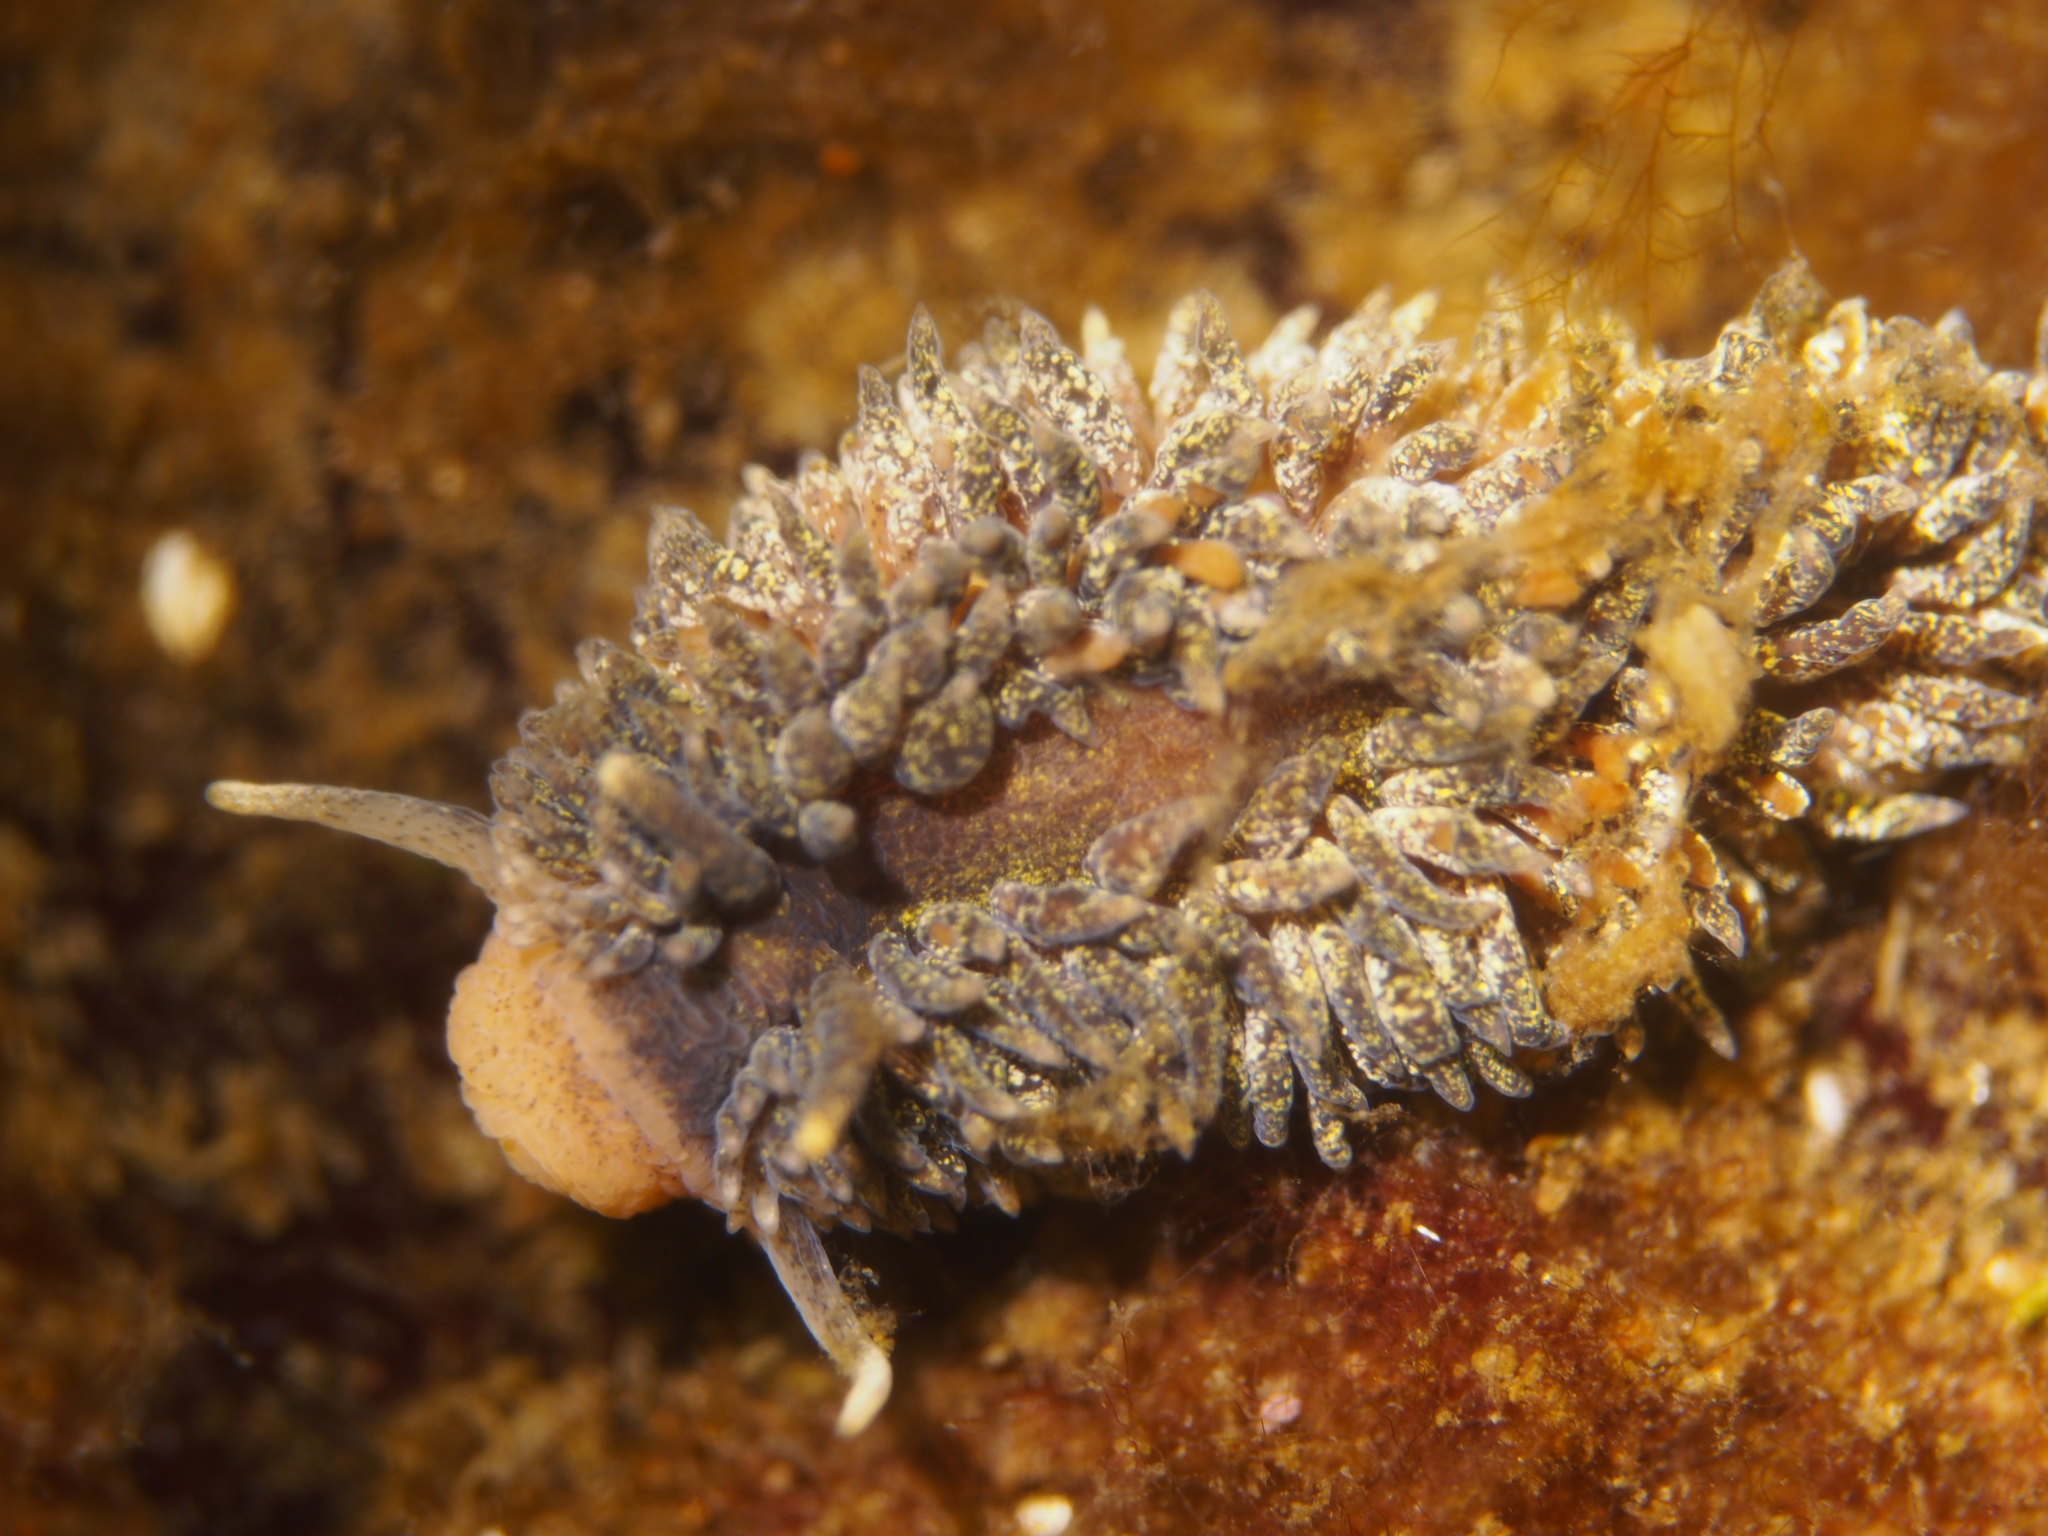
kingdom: Animalia
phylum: Mollusca
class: Gastropoda
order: Nudibranchia
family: Aeolidiidae
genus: Aeolidia
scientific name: Aeolidia papillosa
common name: Common grey sea slug
